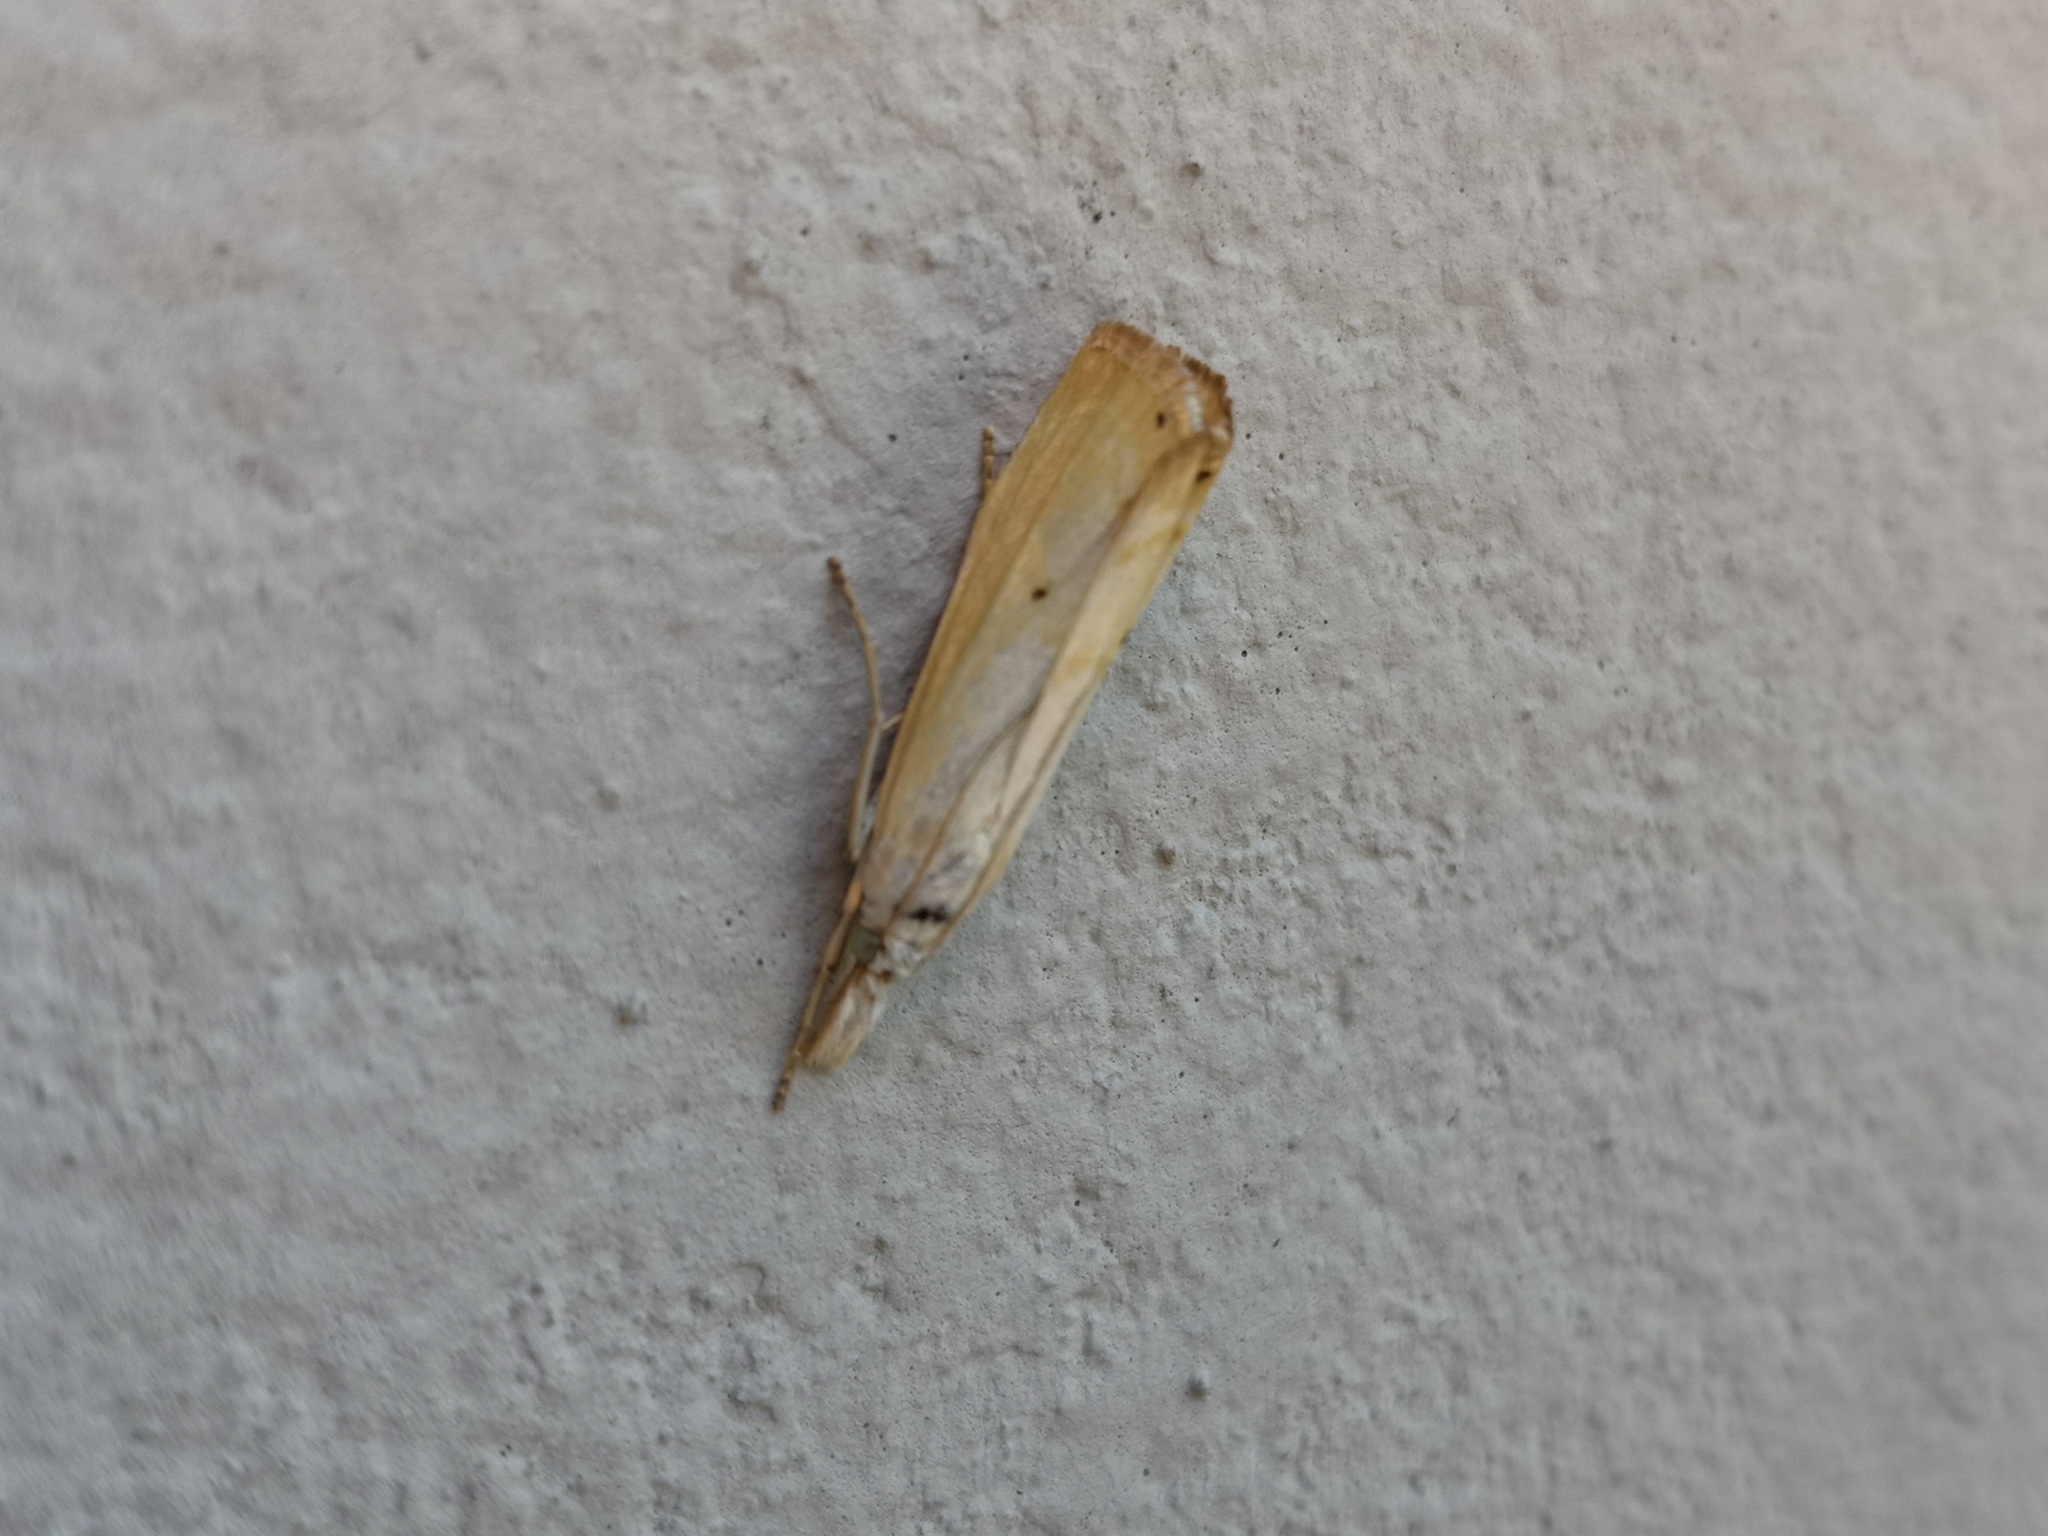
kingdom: Animalia
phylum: Arthropoda
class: Insecta
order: Lepidoptera
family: Crambidae
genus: Xanthocrambus
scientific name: Xanthocrambus saxonellus
